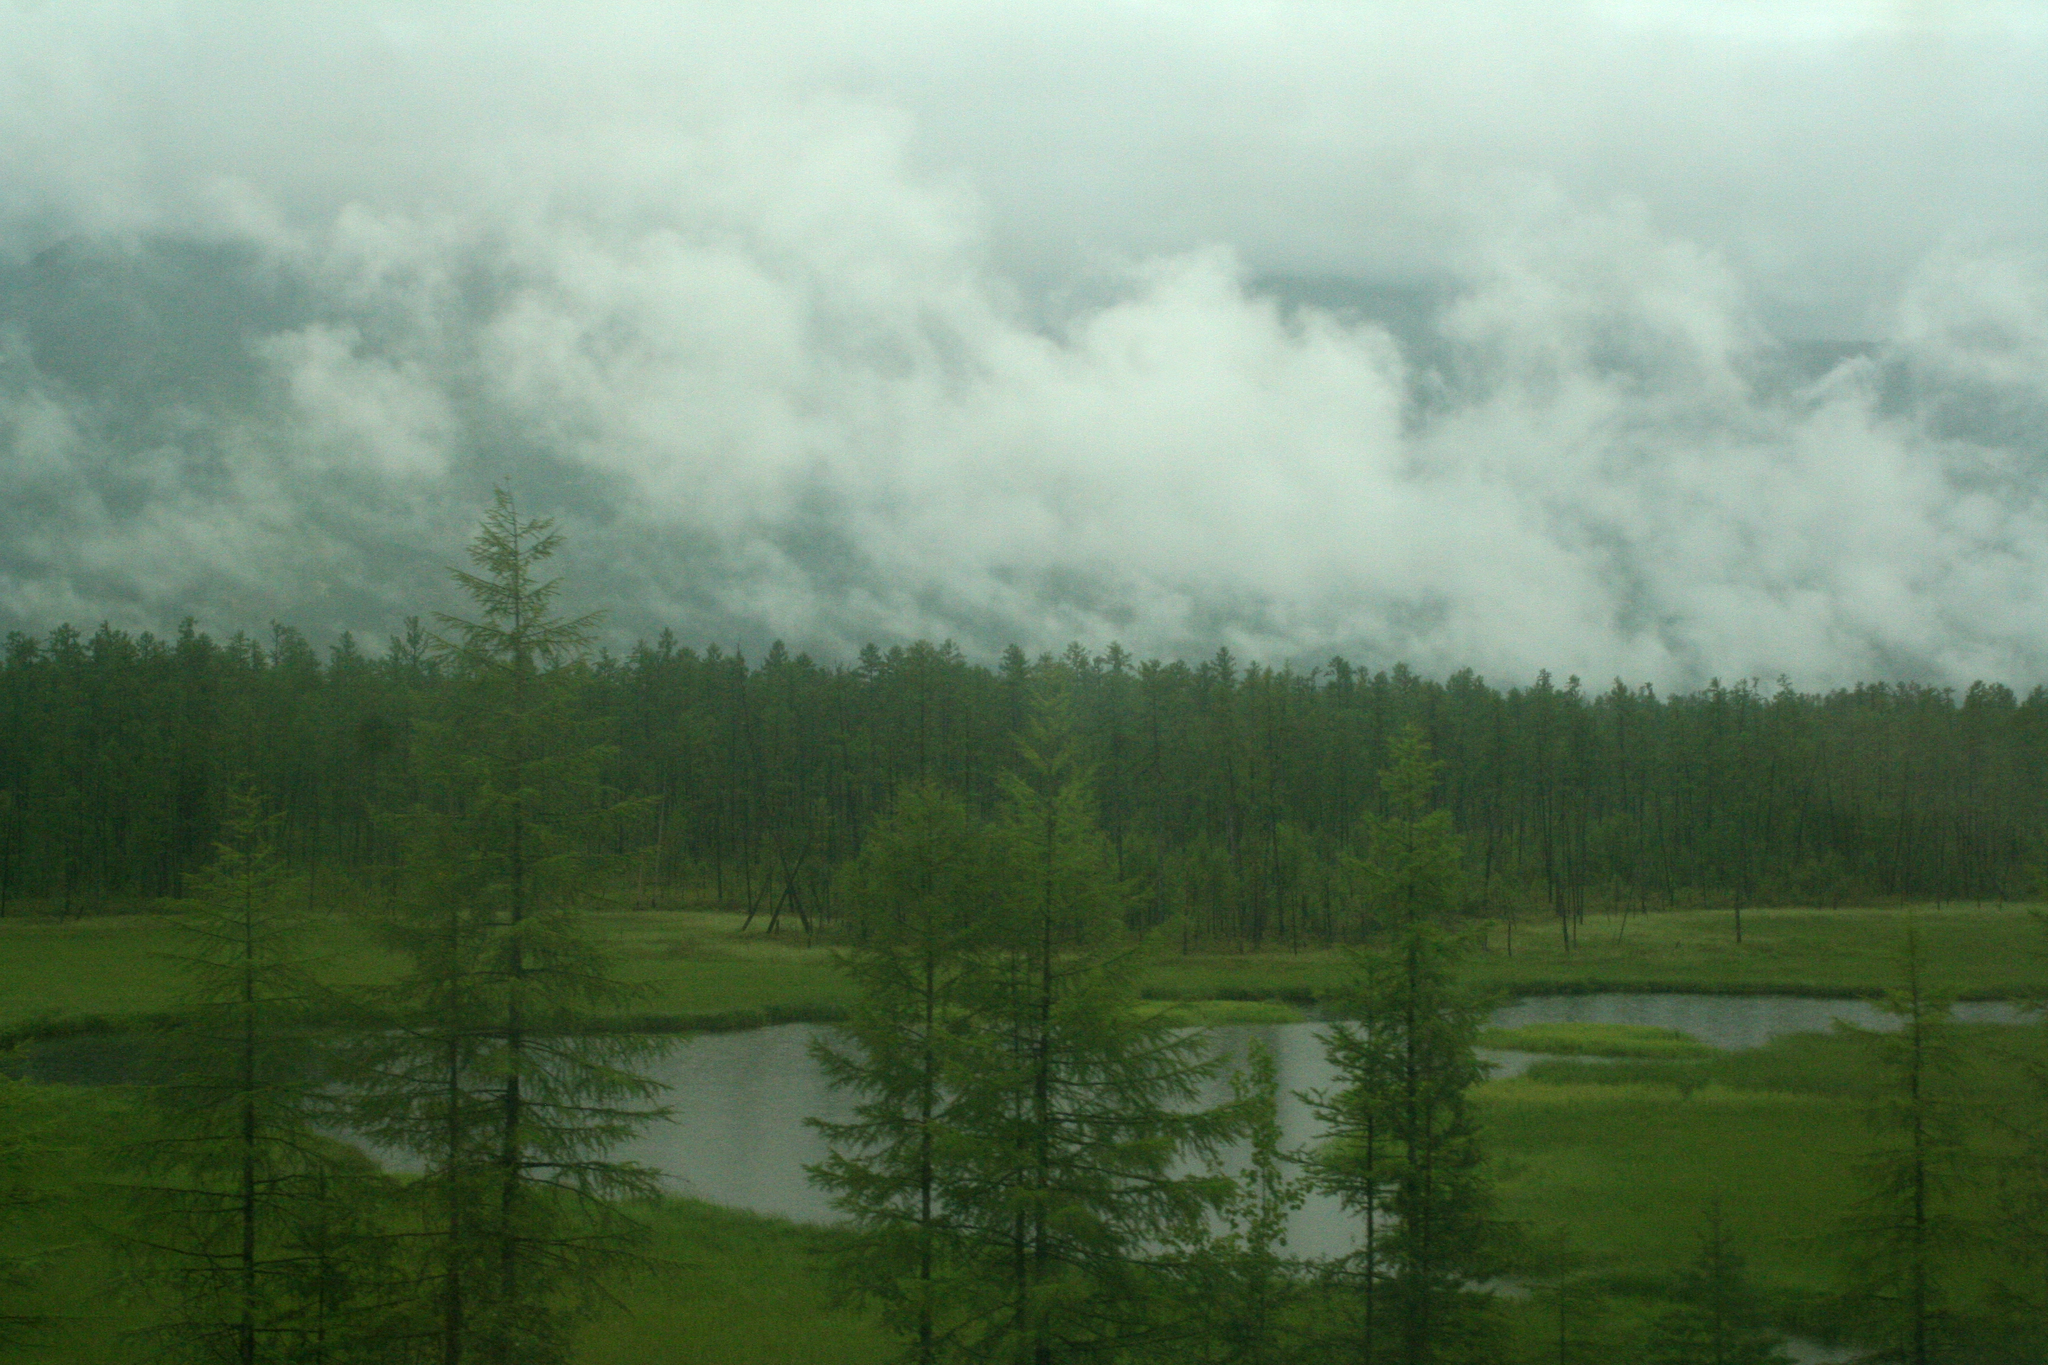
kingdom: Plantae
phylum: Tracheophyta
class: Pinopsida
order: Pinales
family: Pinaceae
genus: Larix
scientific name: Larix gmelinii
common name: Dahurian larch
